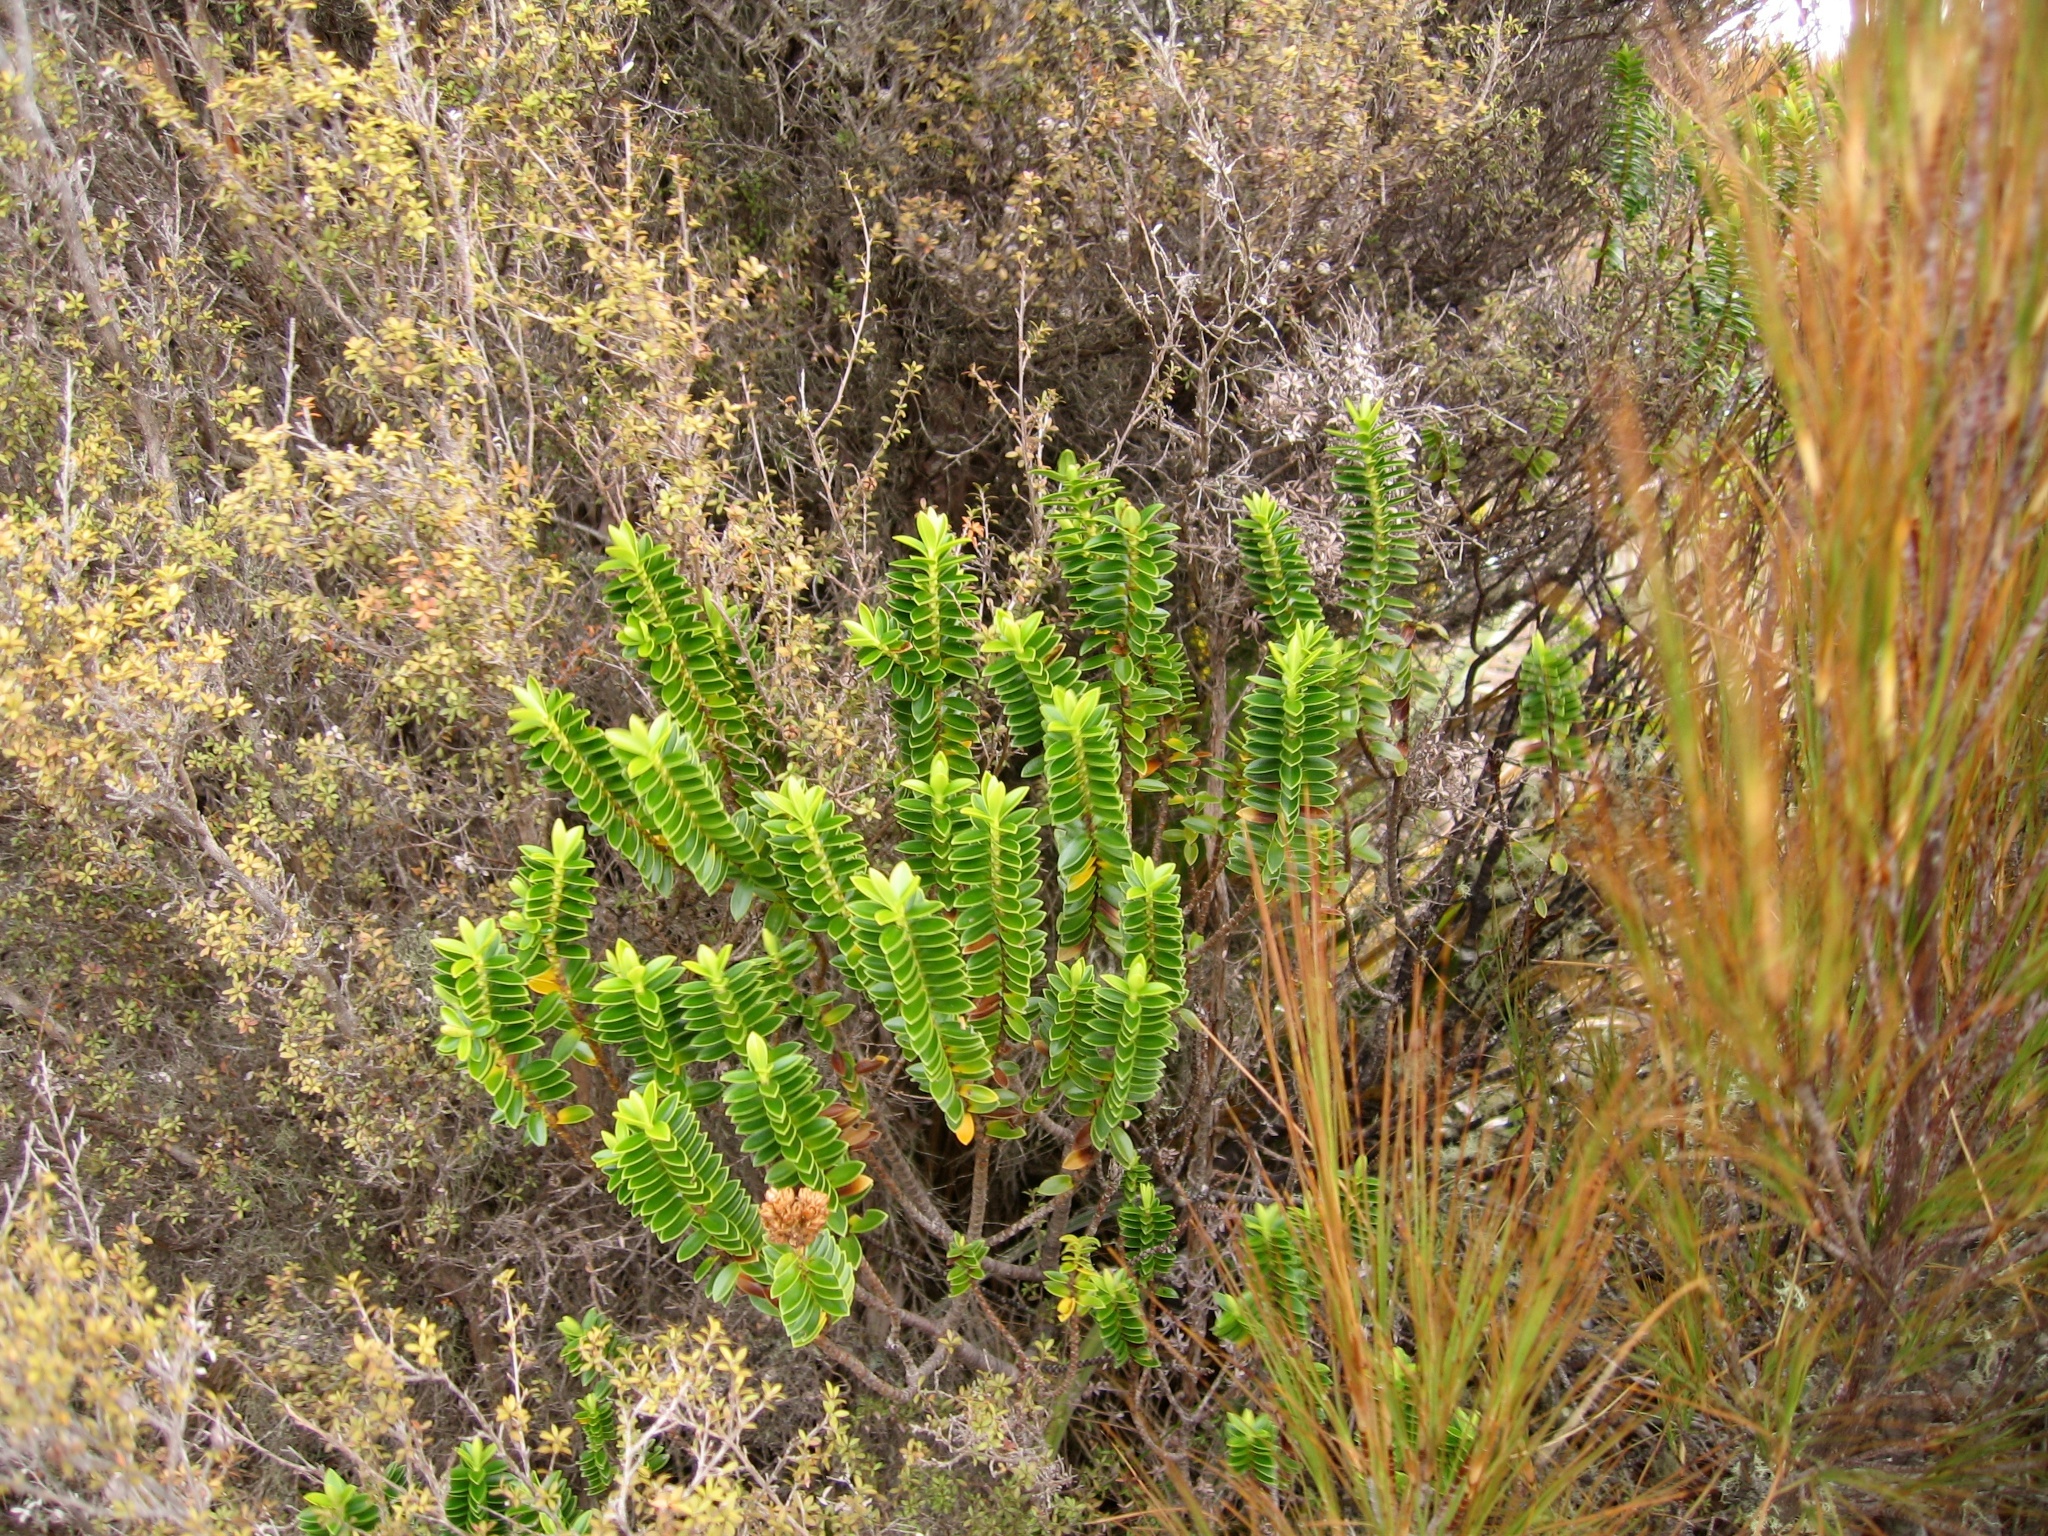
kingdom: Plantae
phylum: Tracheophyta
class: Magnoliopsida
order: Lamiales
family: Plantaginaceae
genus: Veronica
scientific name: Veronica odora
